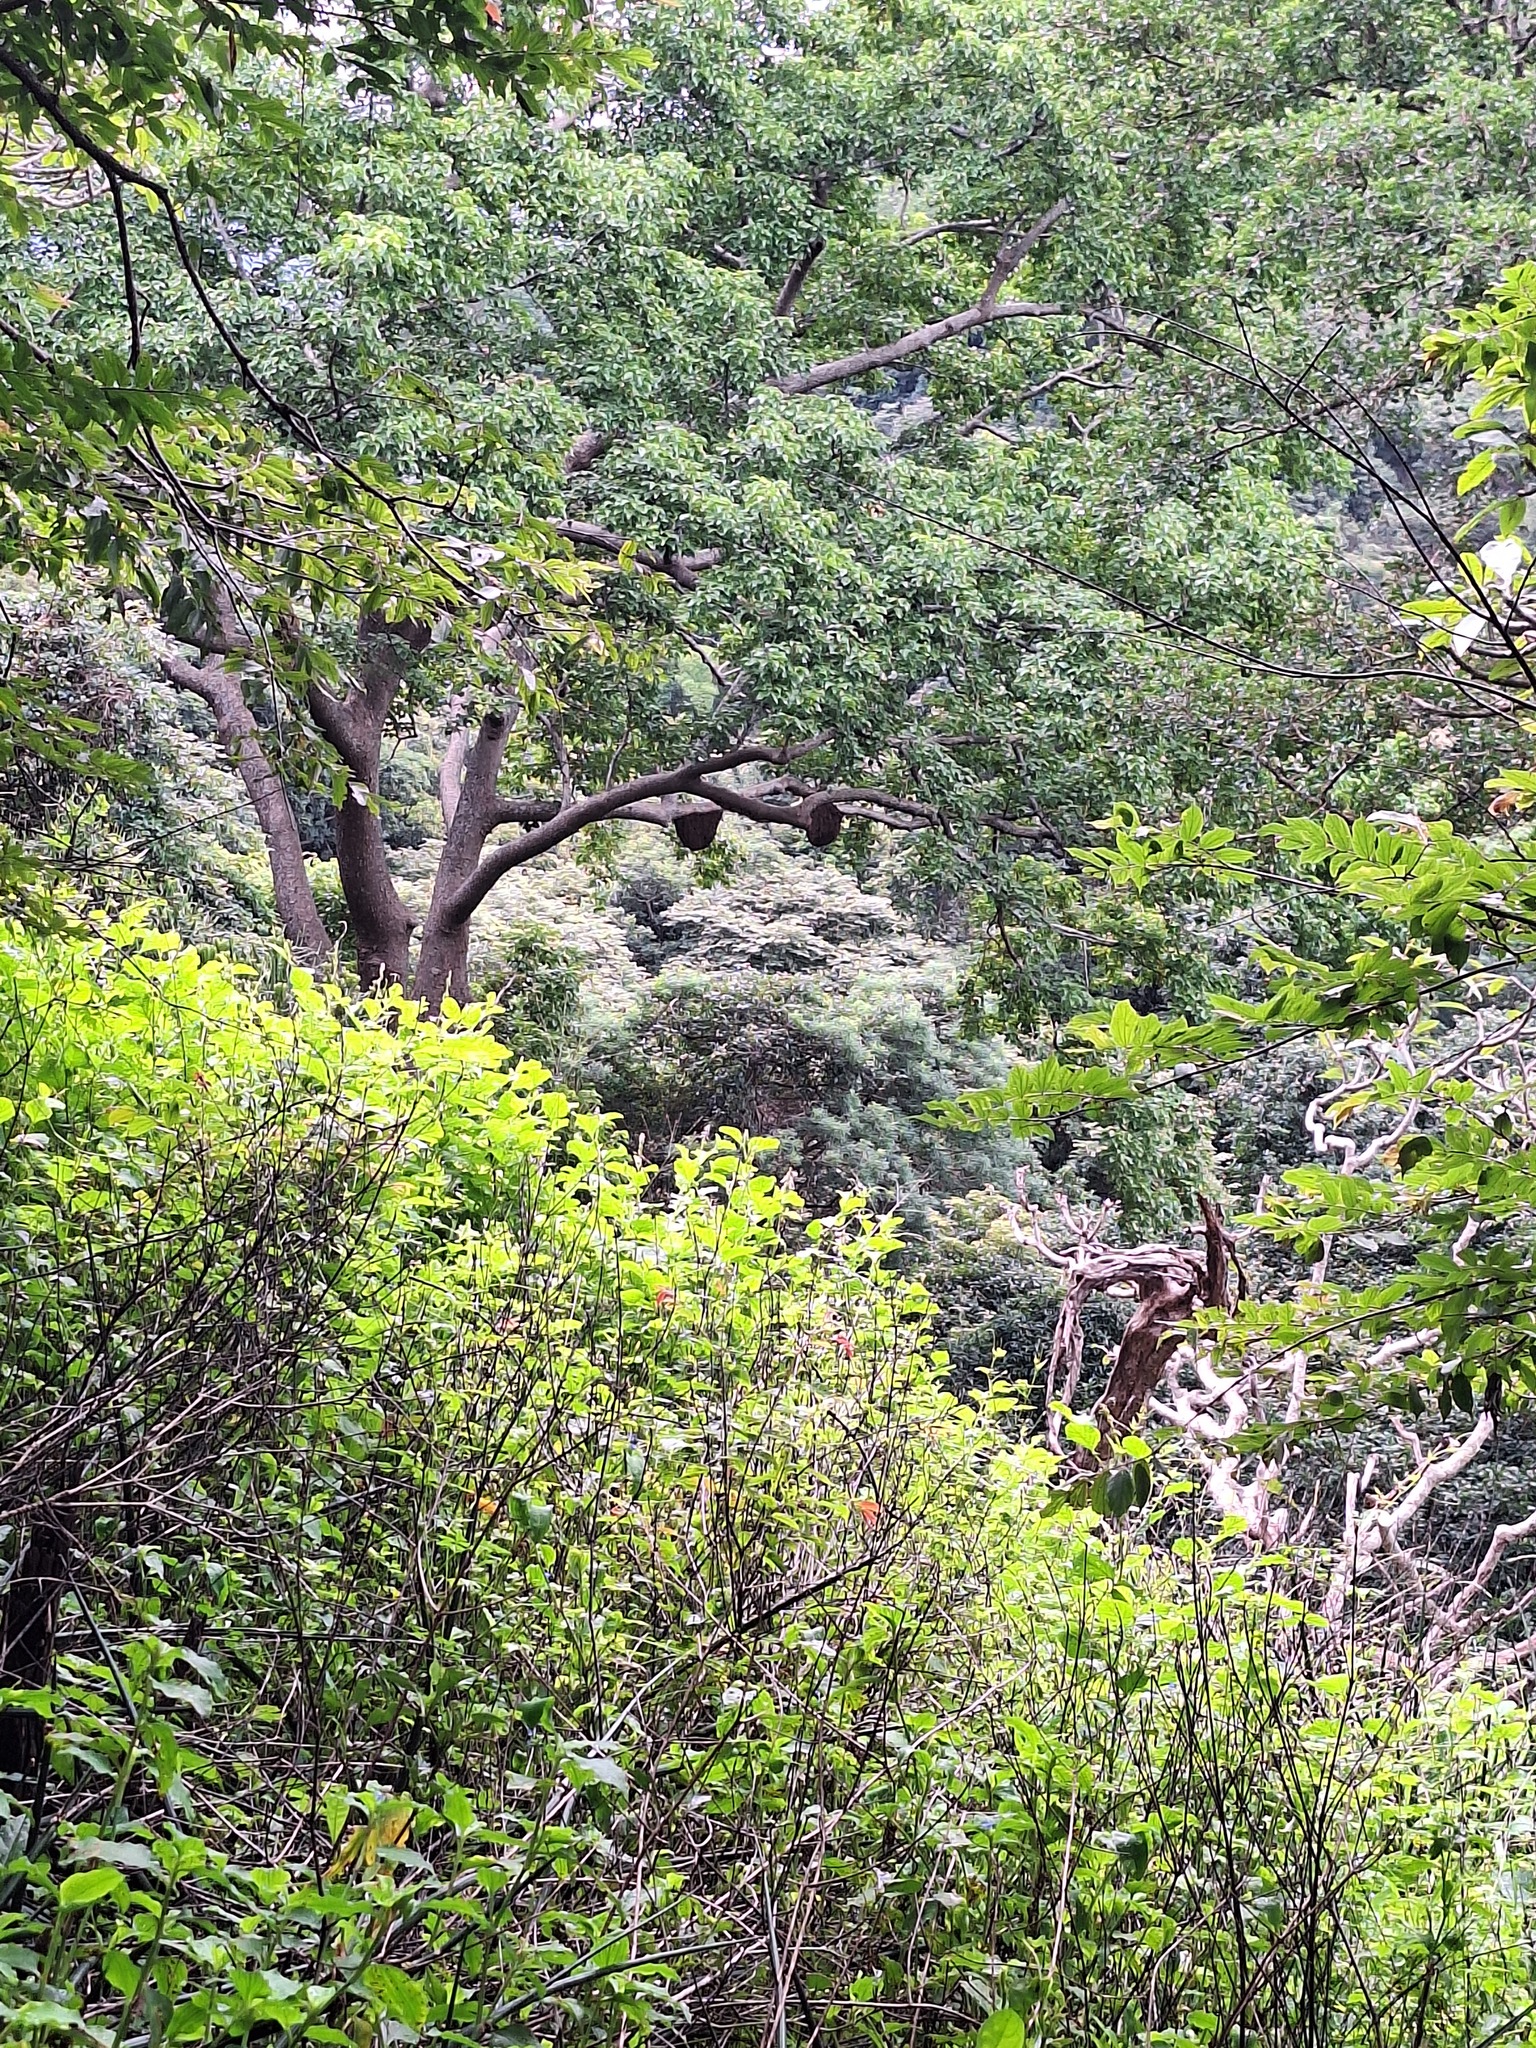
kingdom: Animalia
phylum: Arthropoda
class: Insecta
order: Hymenoptera
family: Apidae
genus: Apis
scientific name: Apis dorsata
